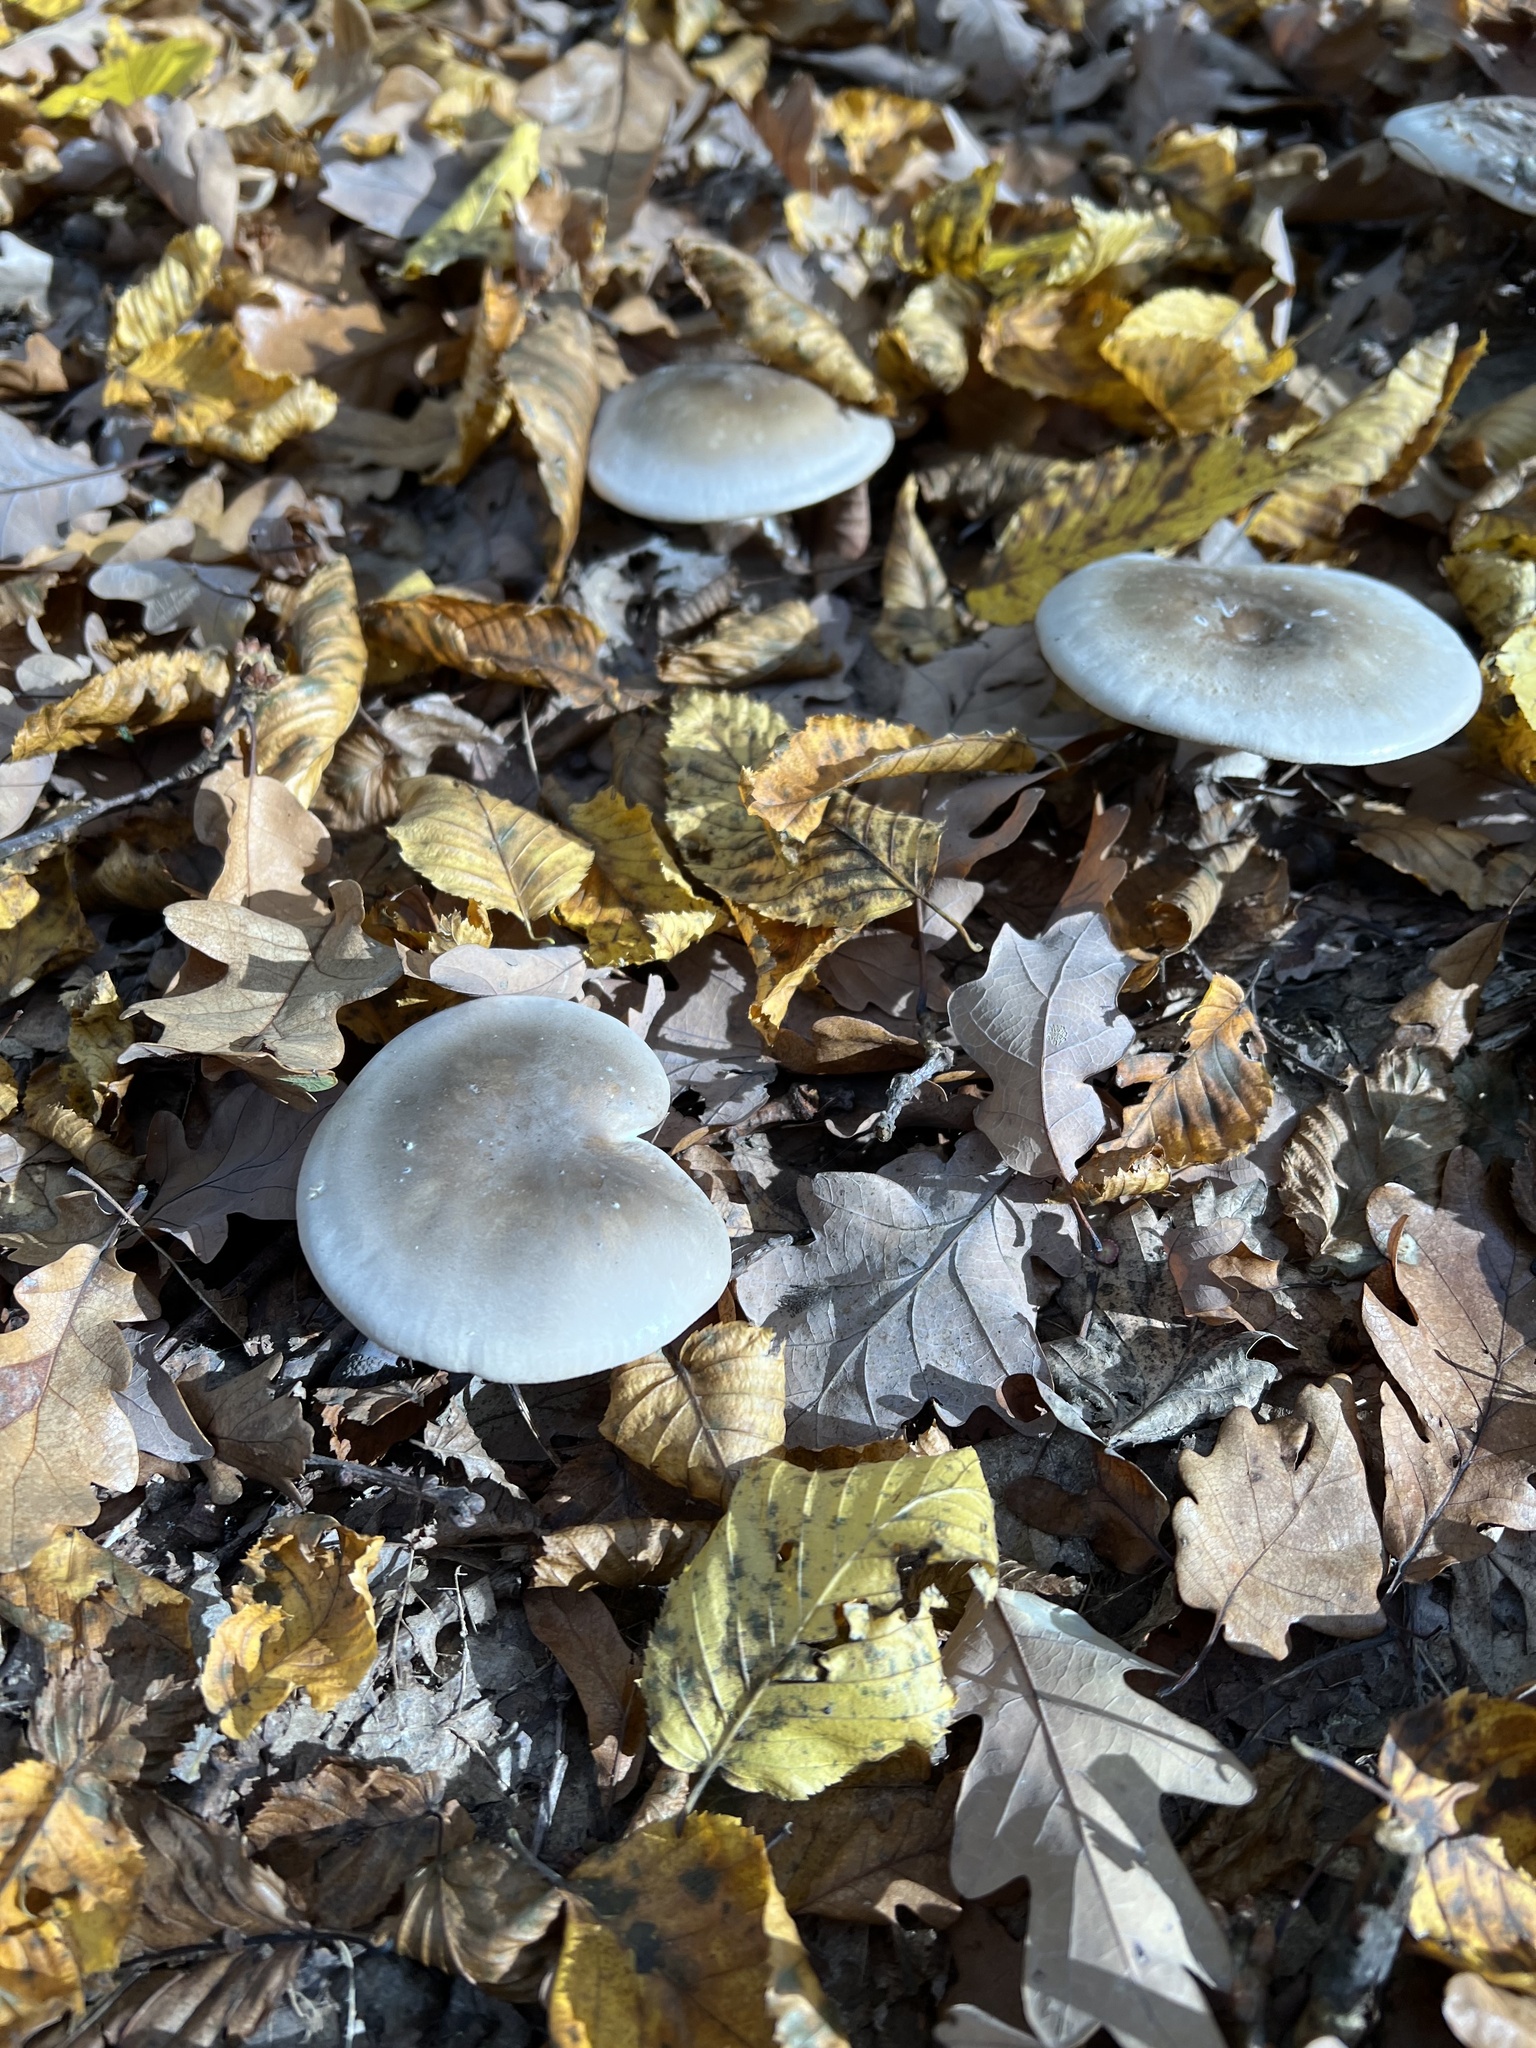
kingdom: Fungi
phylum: Basidiomycota
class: Agaricomycetes
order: Agaricales
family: Tricholomataceae
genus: Clitocybe
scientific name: Clitocybe nebularis
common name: Clouded agaric
